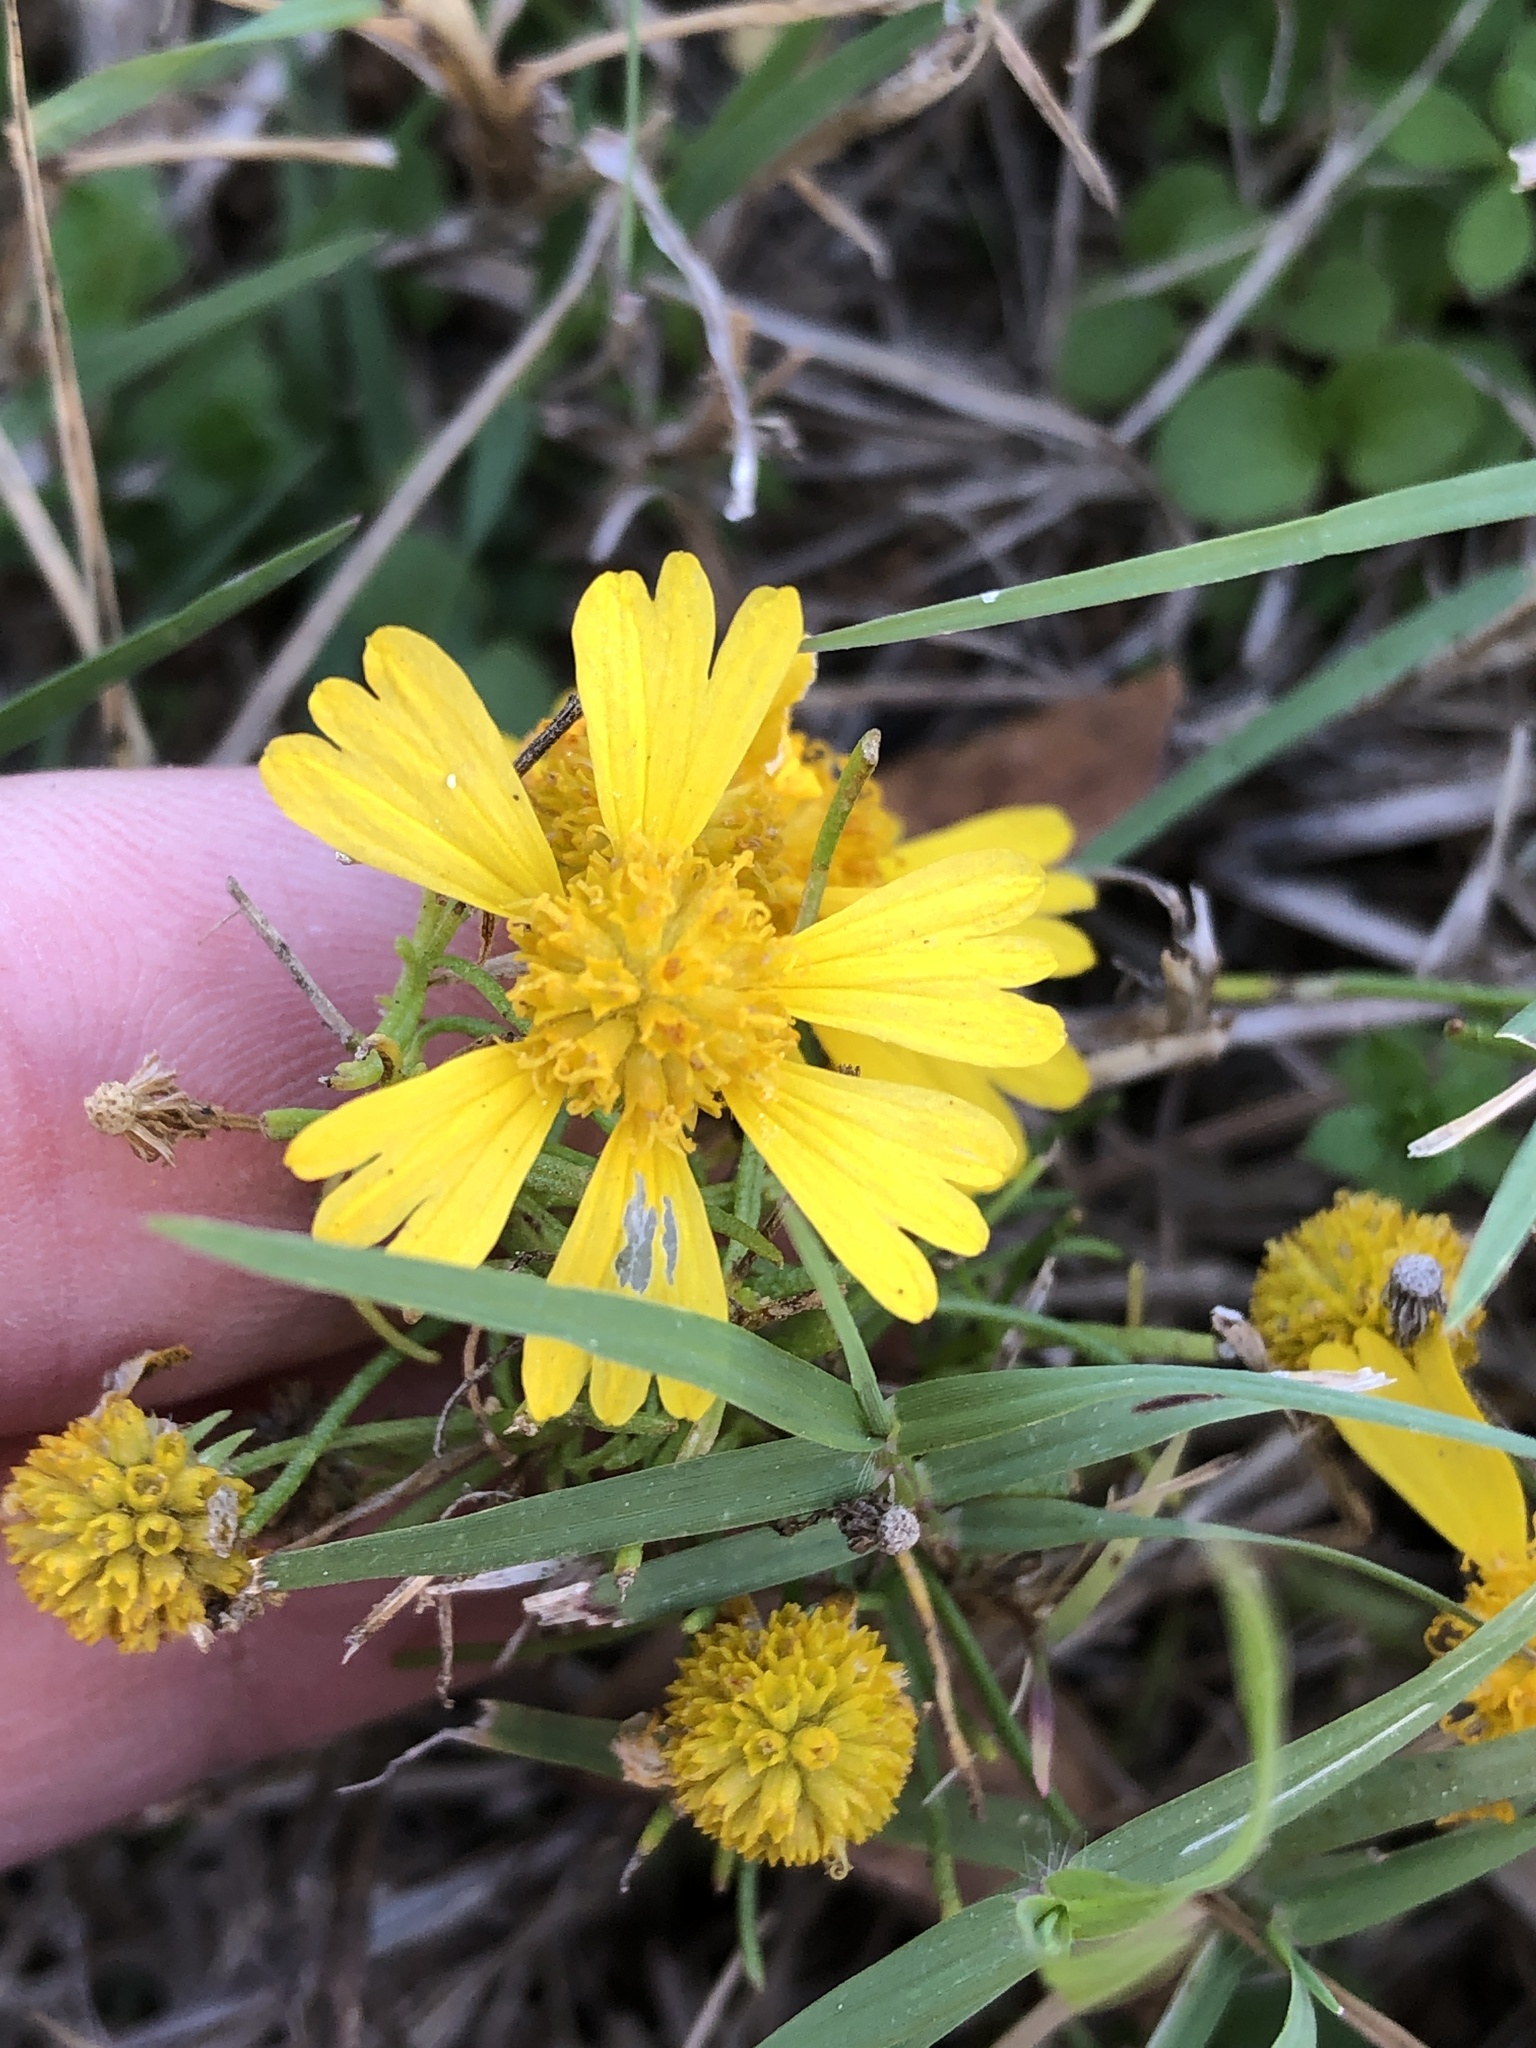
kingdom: Plantae
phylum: Tracheophyta
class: Magnoliopsida
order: Asterales
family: Asteraceae
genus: Helenium
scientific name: Helenium amarum
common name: Bitter sneezeweed
